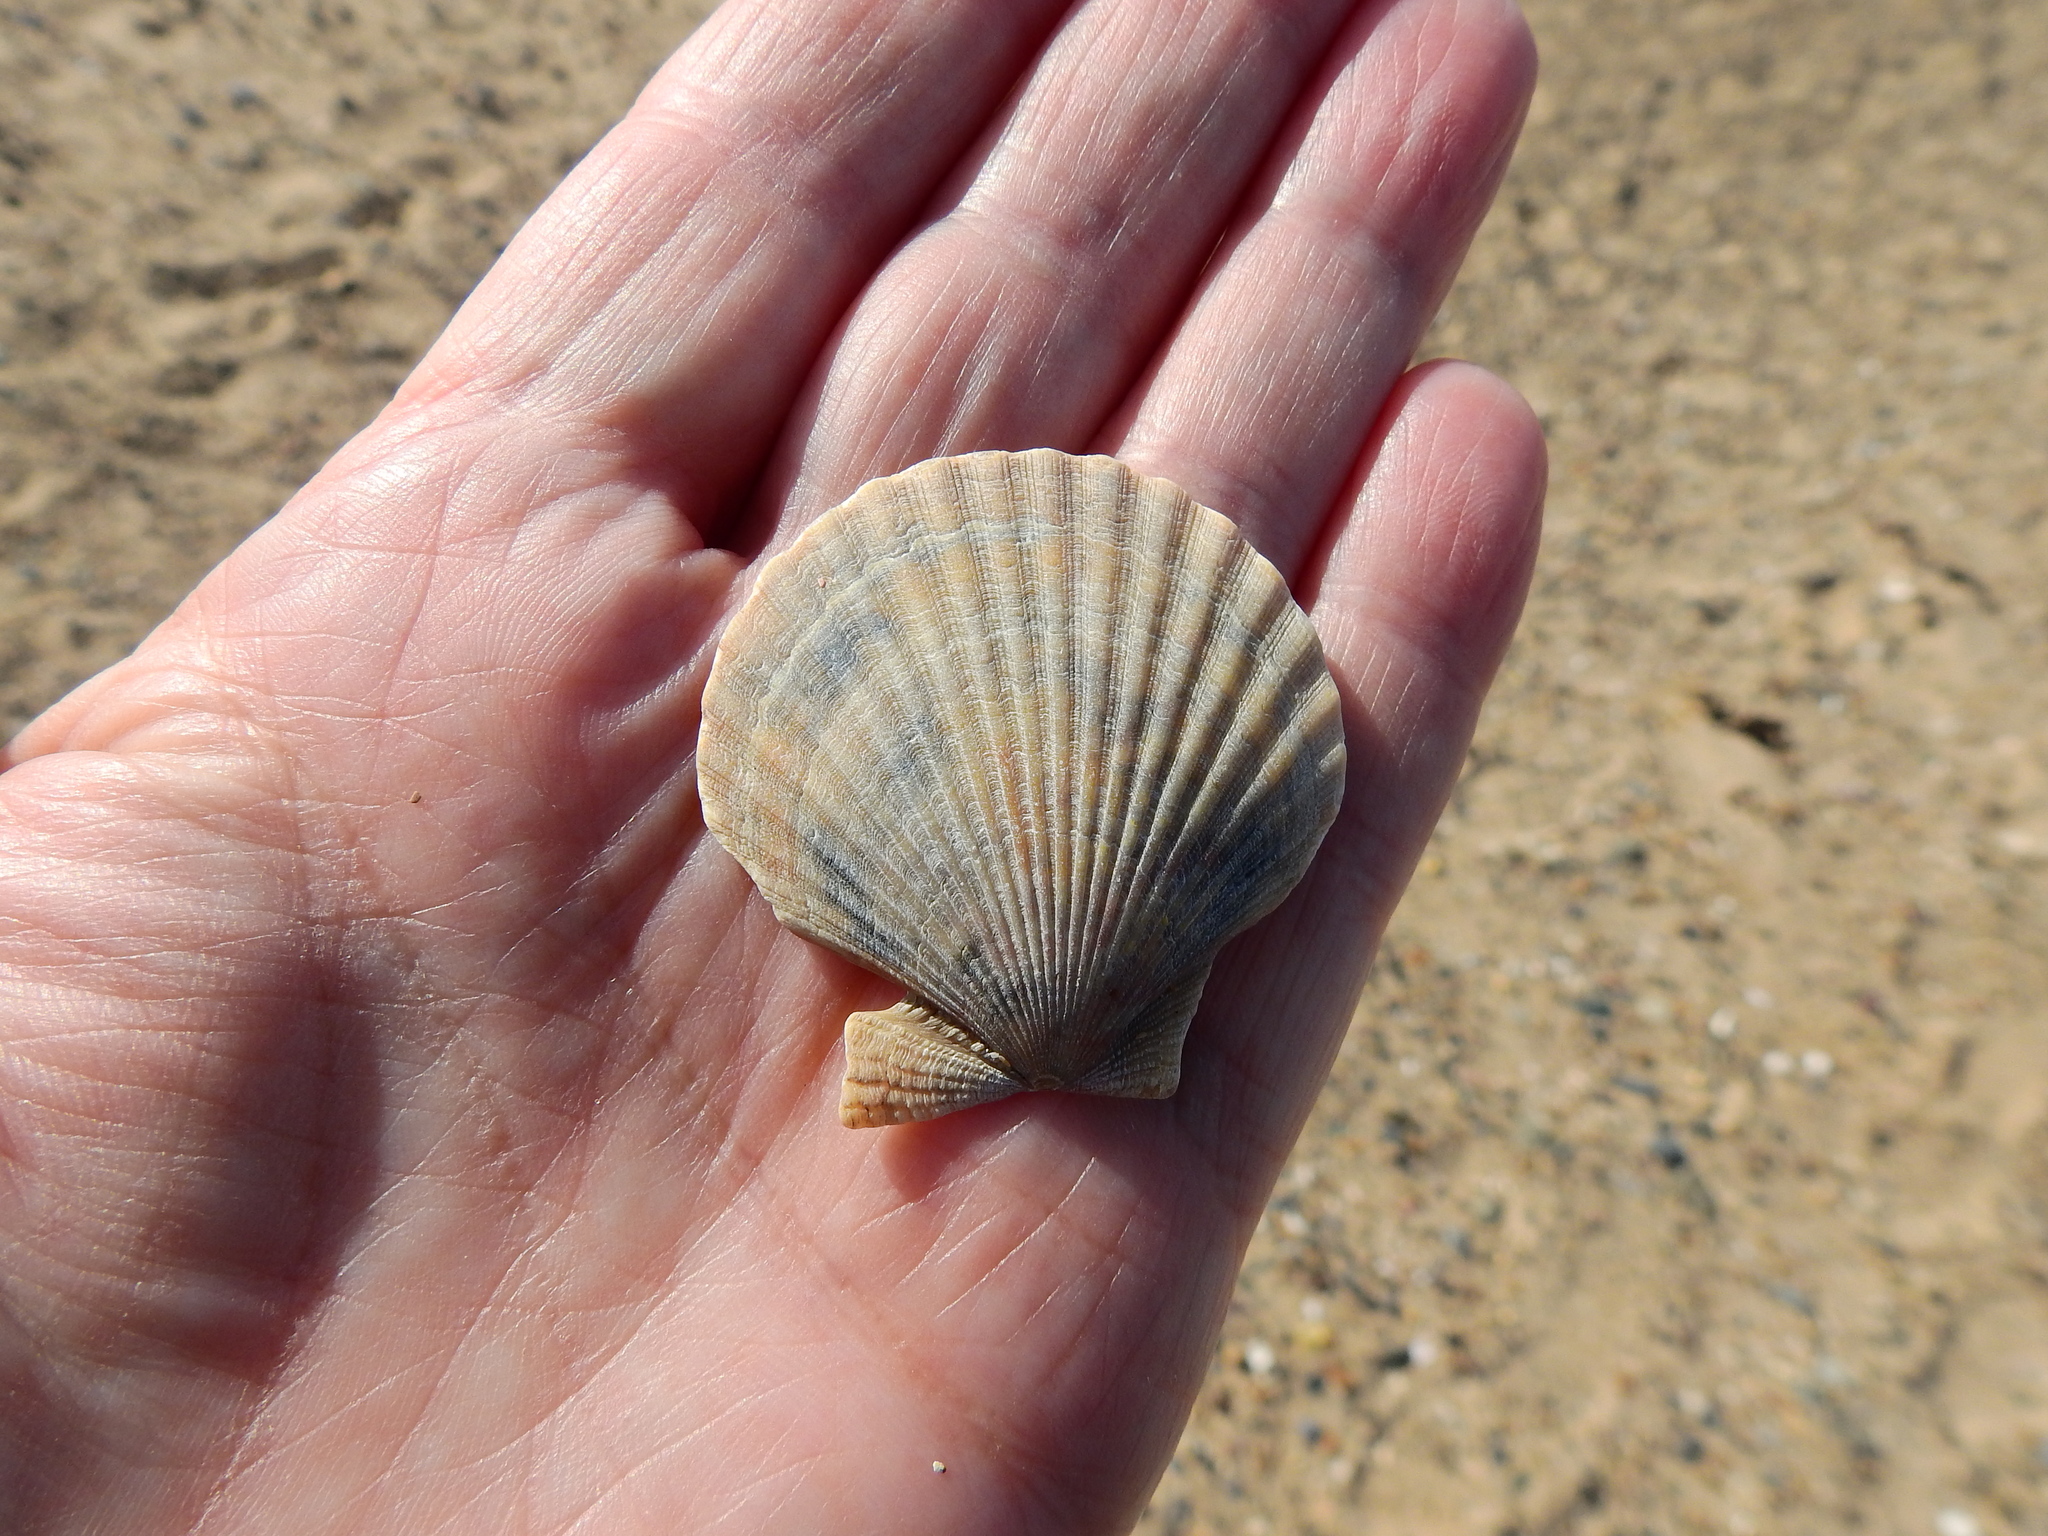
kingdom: Animalia
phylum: Mollusca
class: Bivalvia
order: Pectinida
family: Pectinidae
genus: Aequipecten
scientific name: Aequipecten opercularis
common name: Queen scallop
